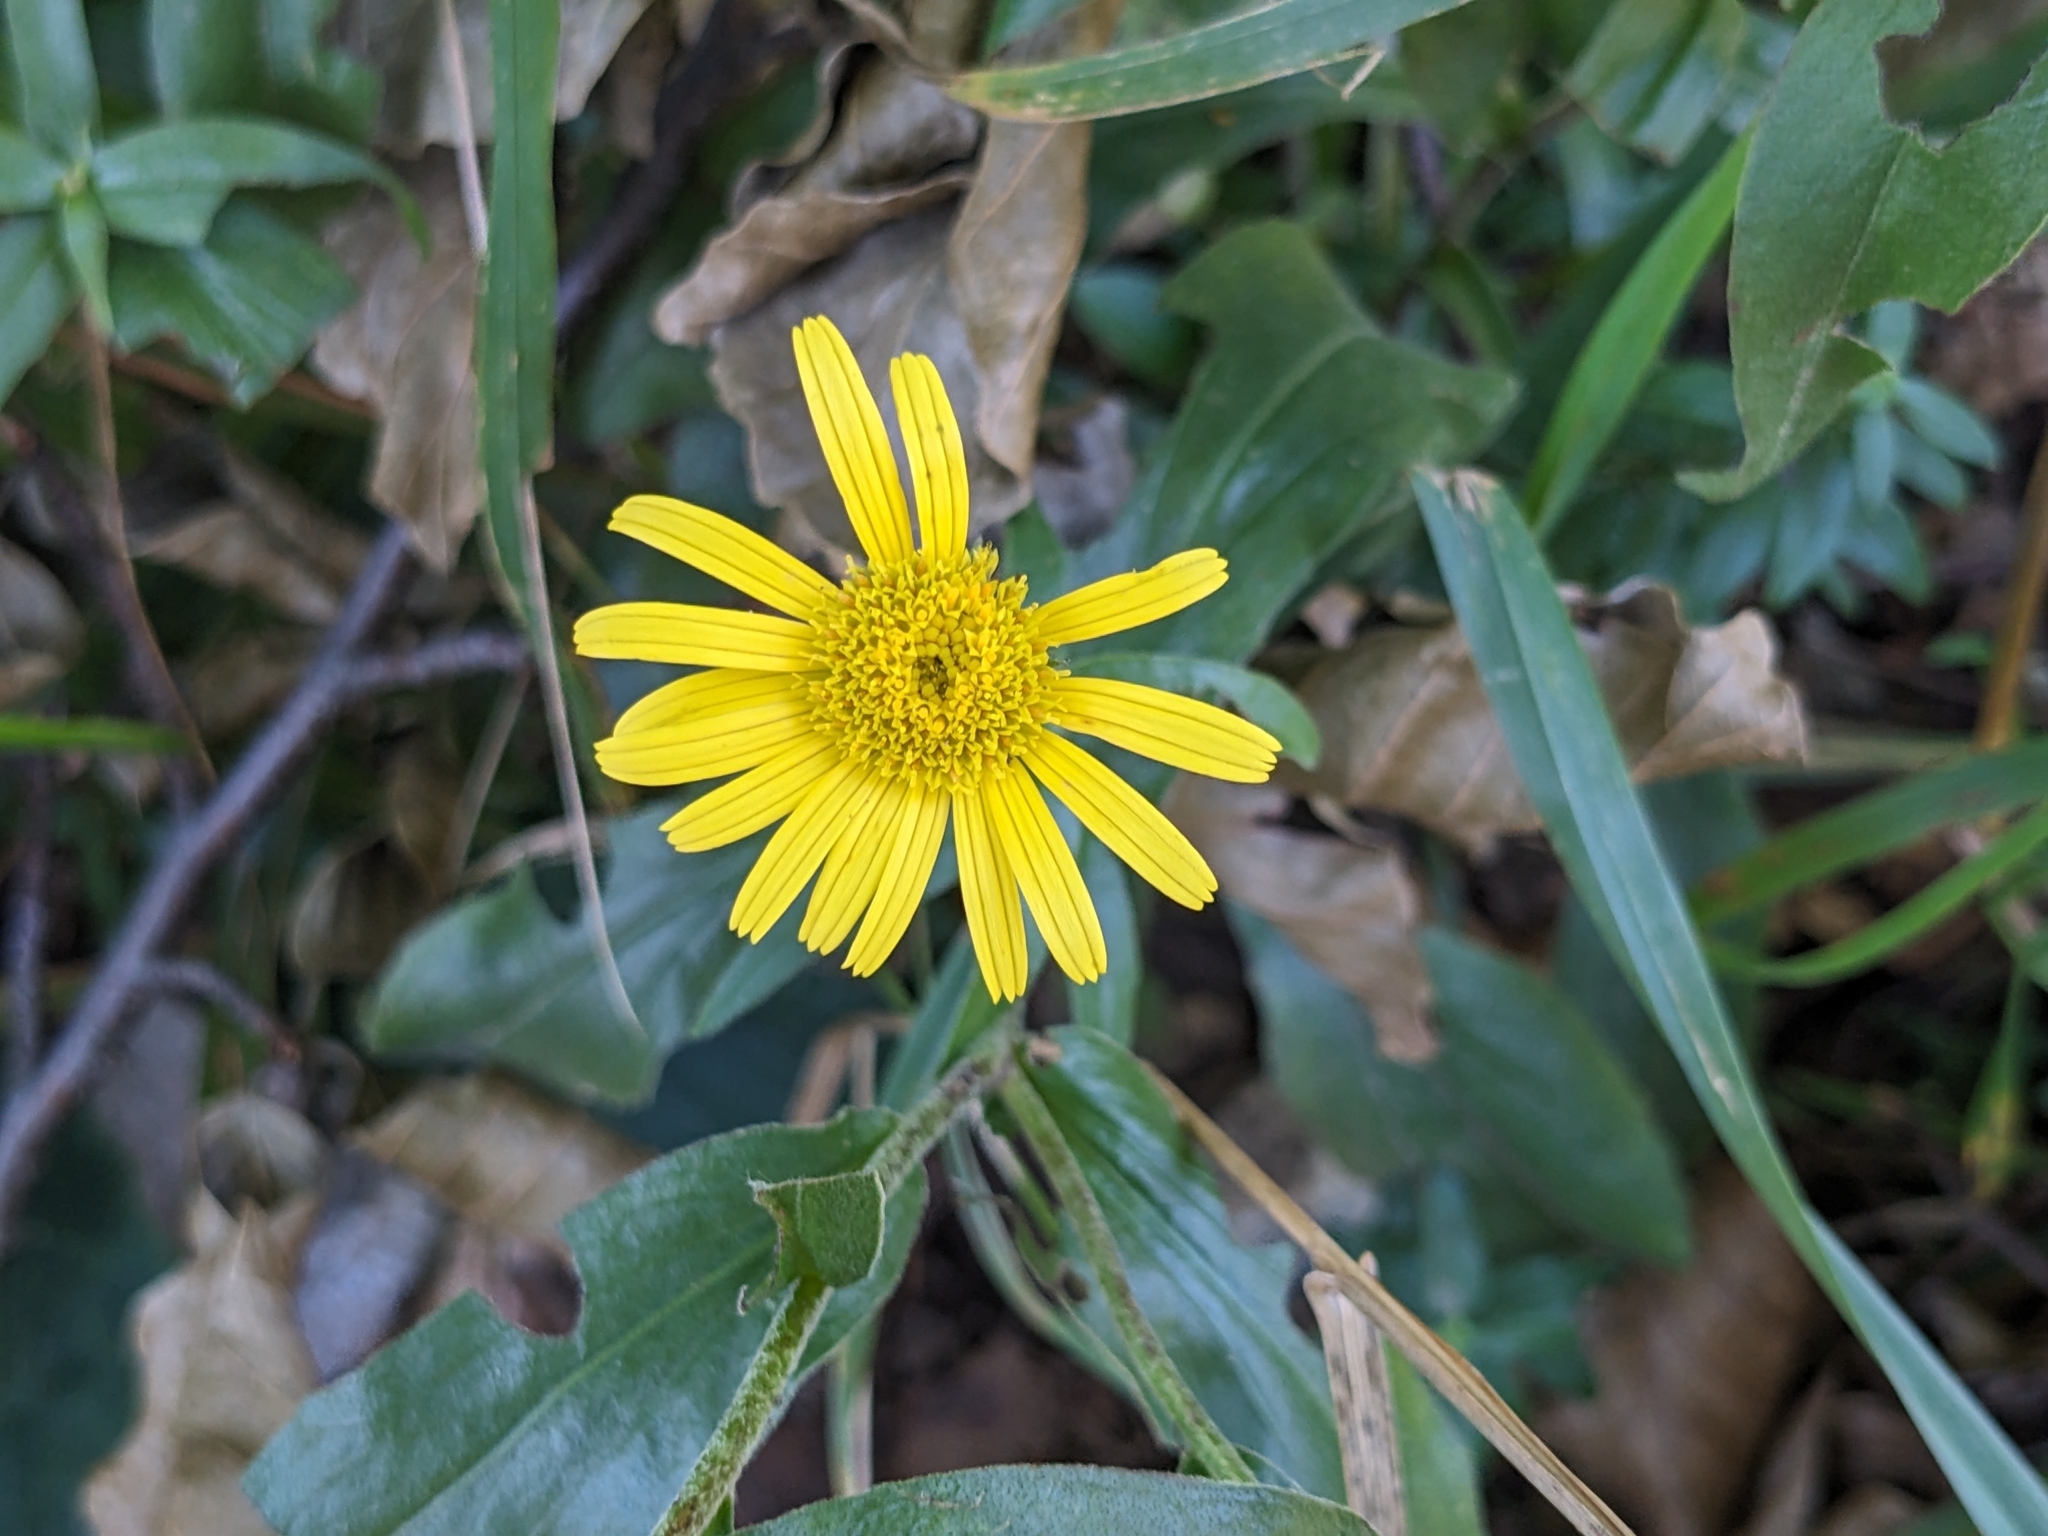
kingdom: Plantae
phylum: Tracheophyta
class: Magnoliopsida
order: Asterales
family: Asteraceae
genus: Buphthalmum
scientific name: Buphthalmum salicifolium
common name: Willow-leaved yellow-oxeye
